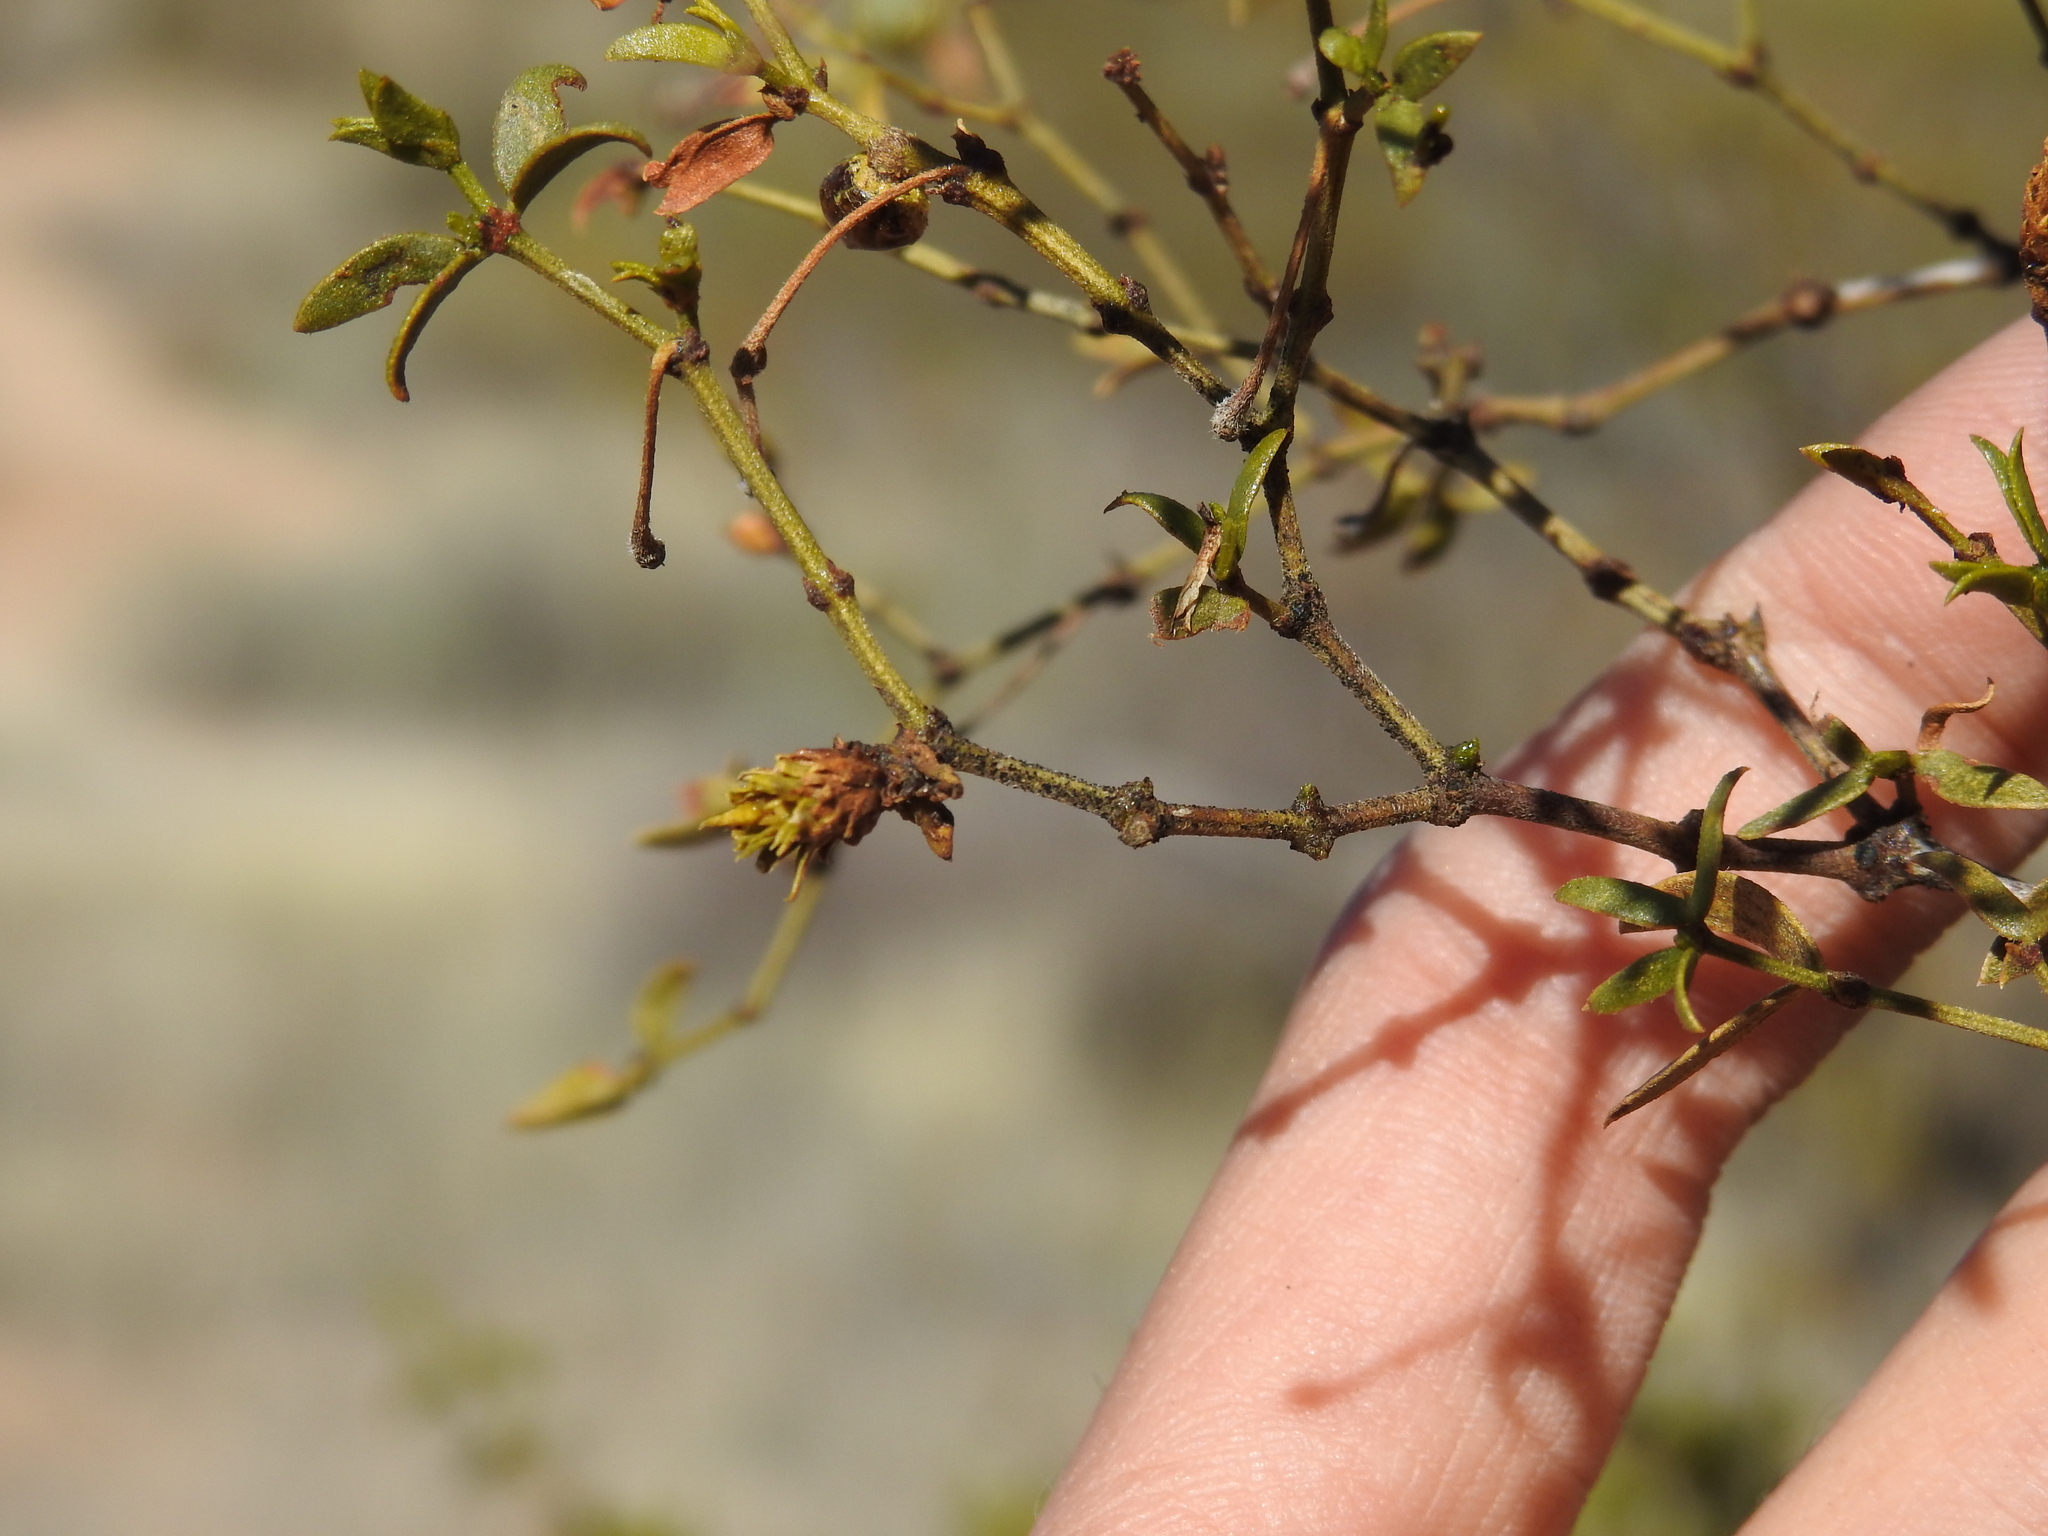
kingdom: Animalia
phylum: Arthropoda
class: Insecta
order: Diptera
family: Cecidomyiidae
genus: Asphondylia
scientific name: Asphondylia rosetta
